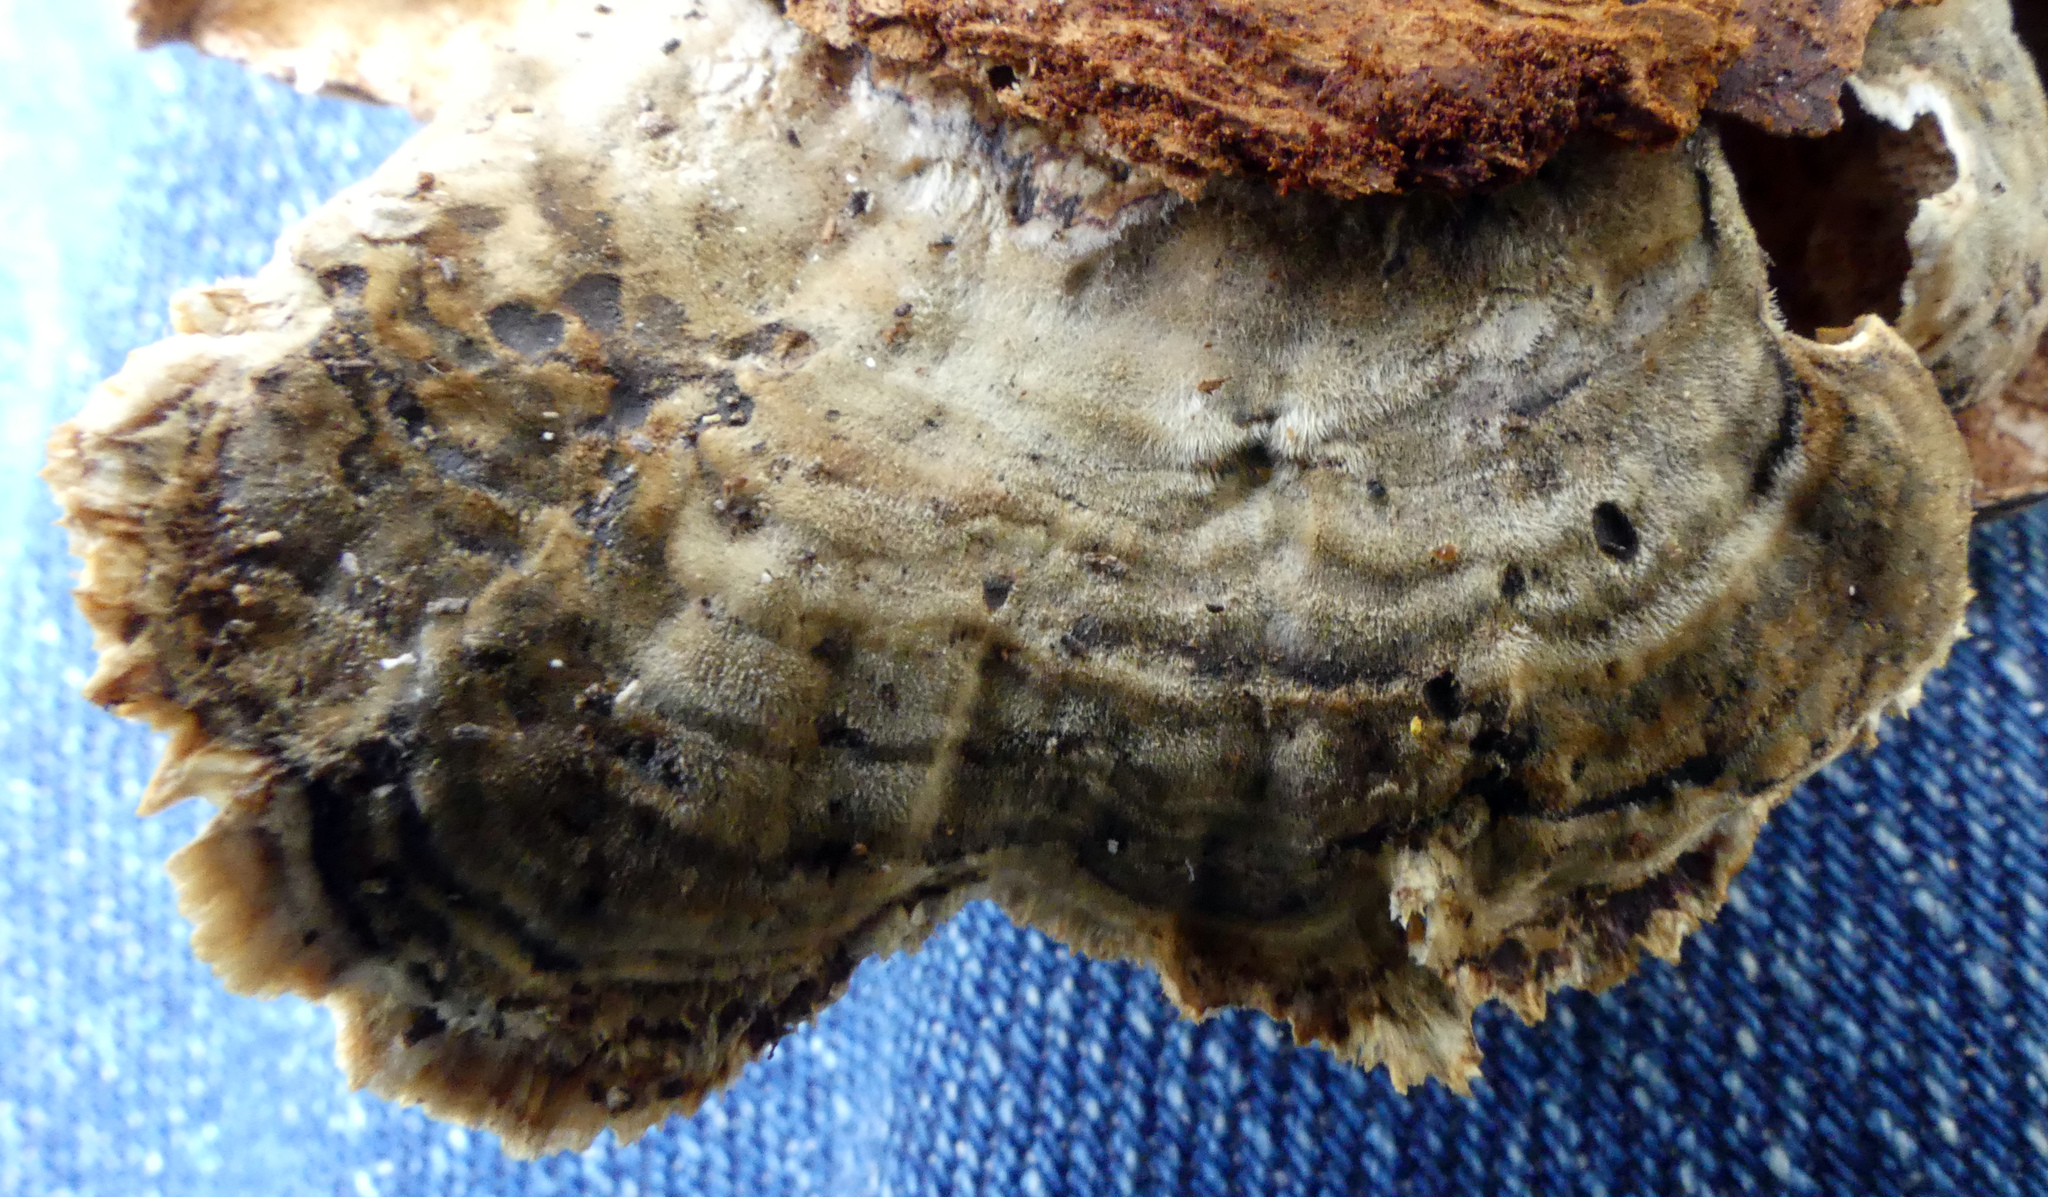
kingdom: Fungi
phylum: Basidiomycota
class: Agaricomycetes
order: Polyporales
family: Polyporaceae
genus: Trametes
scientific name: Trametes versicolor
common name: Turkeytail
